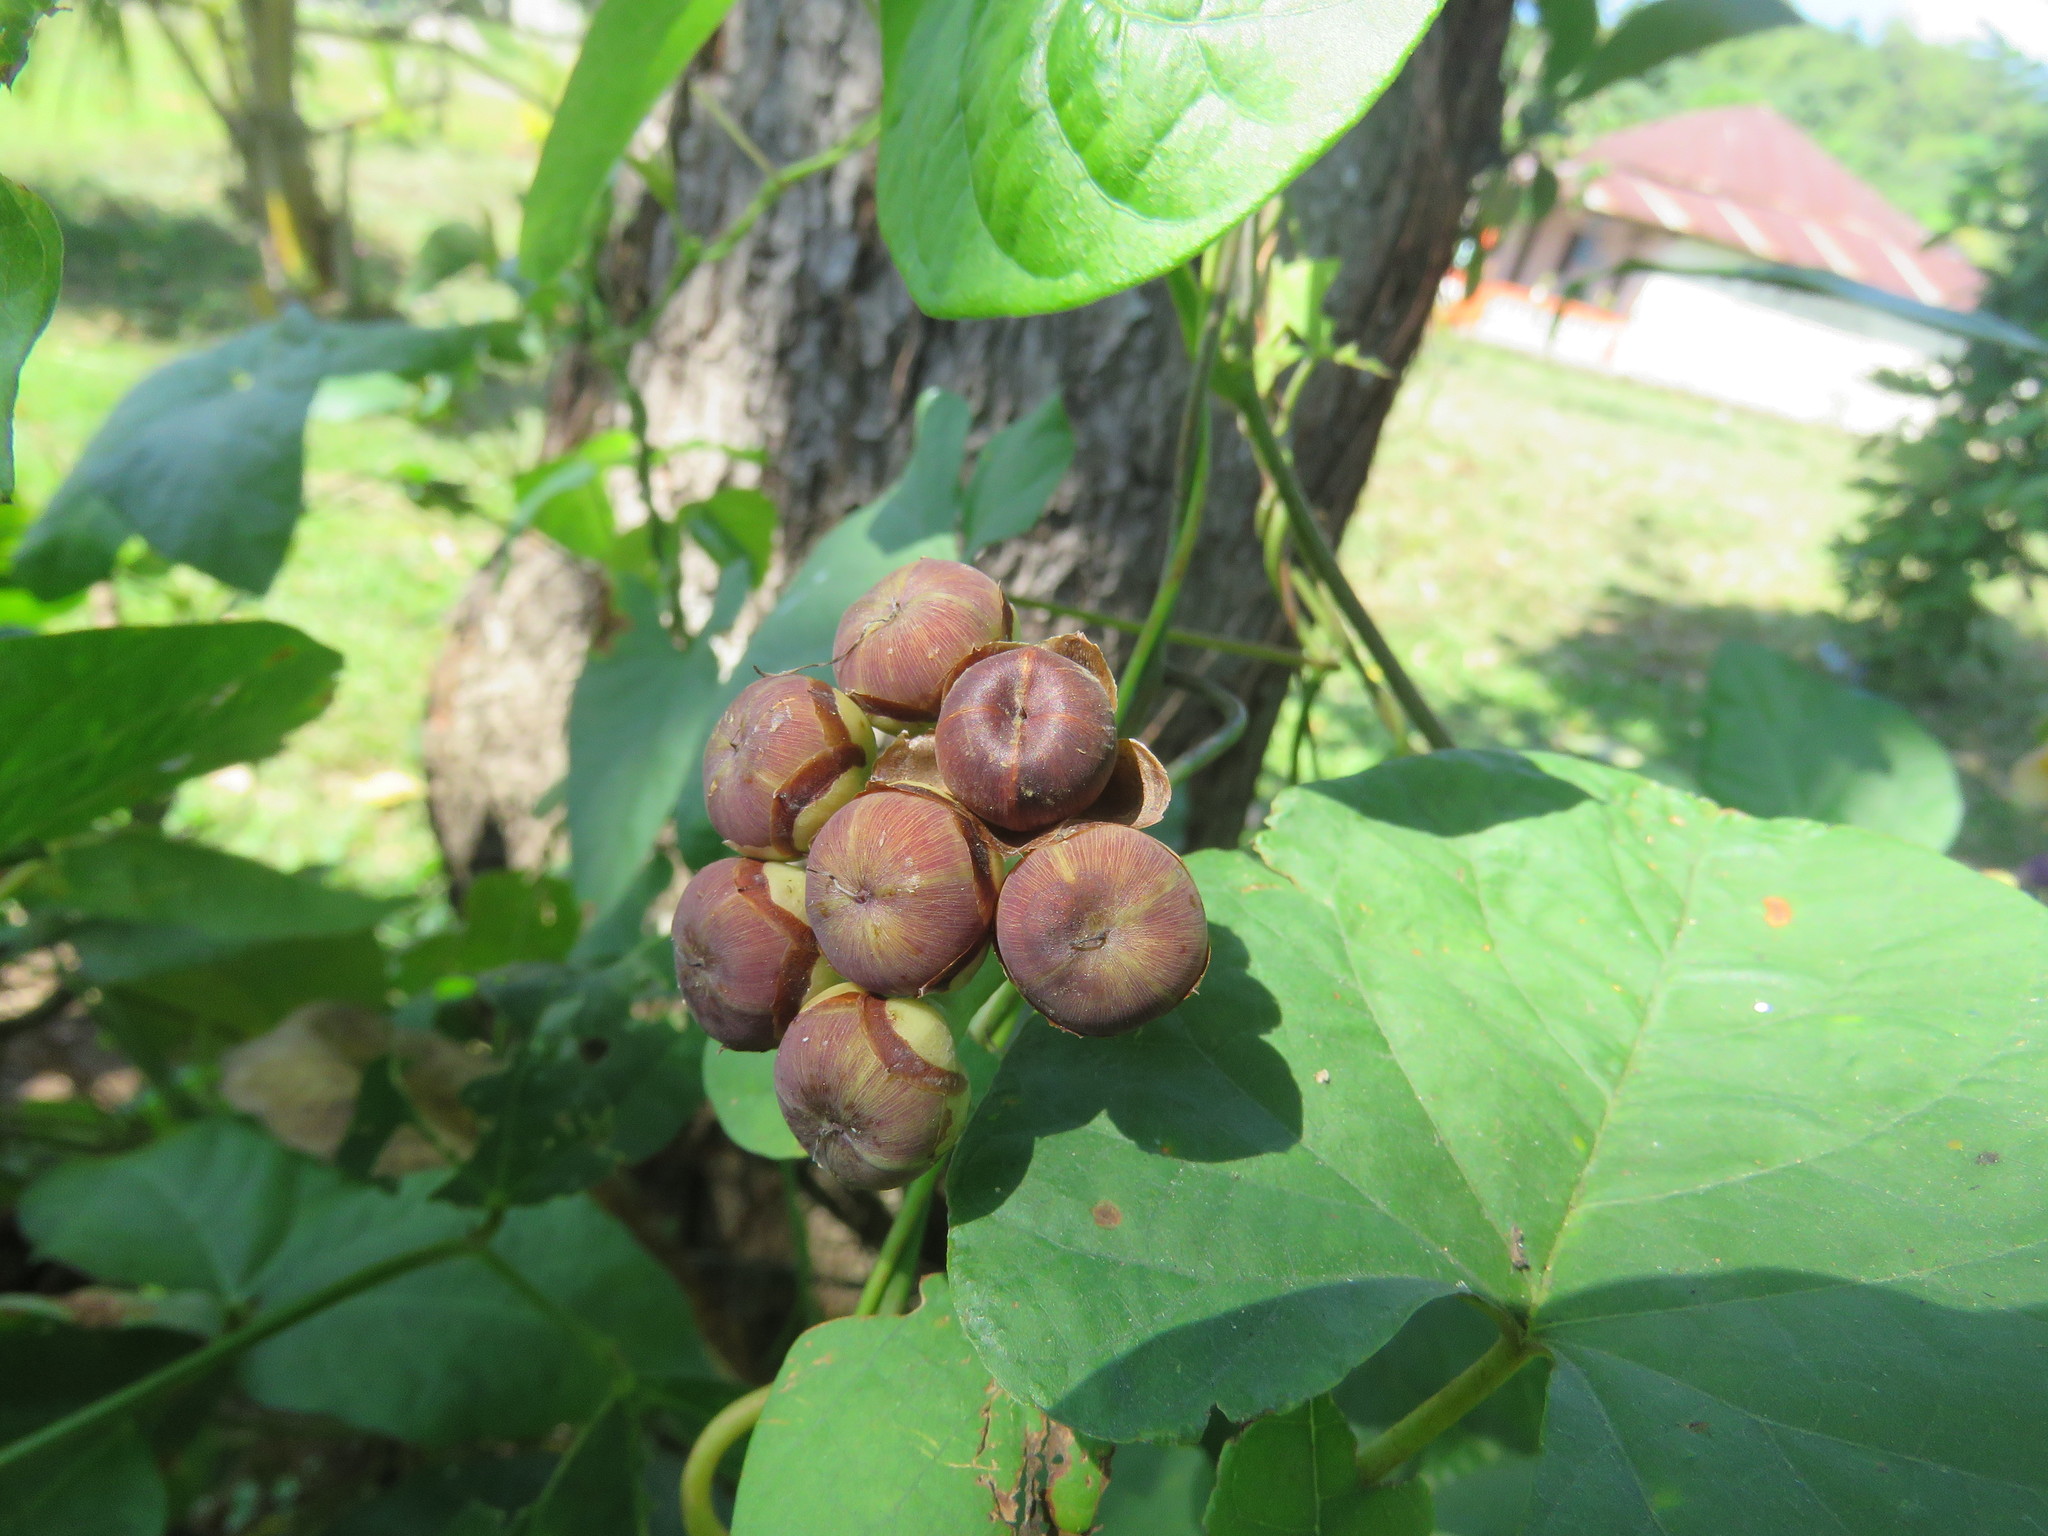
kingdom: Plantae
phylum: Tracheophyta
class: Magnoliopsida
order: Solanales
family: Convolvulaceae
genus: Camonea
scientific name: Camonea umbellata
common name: Hogvine
